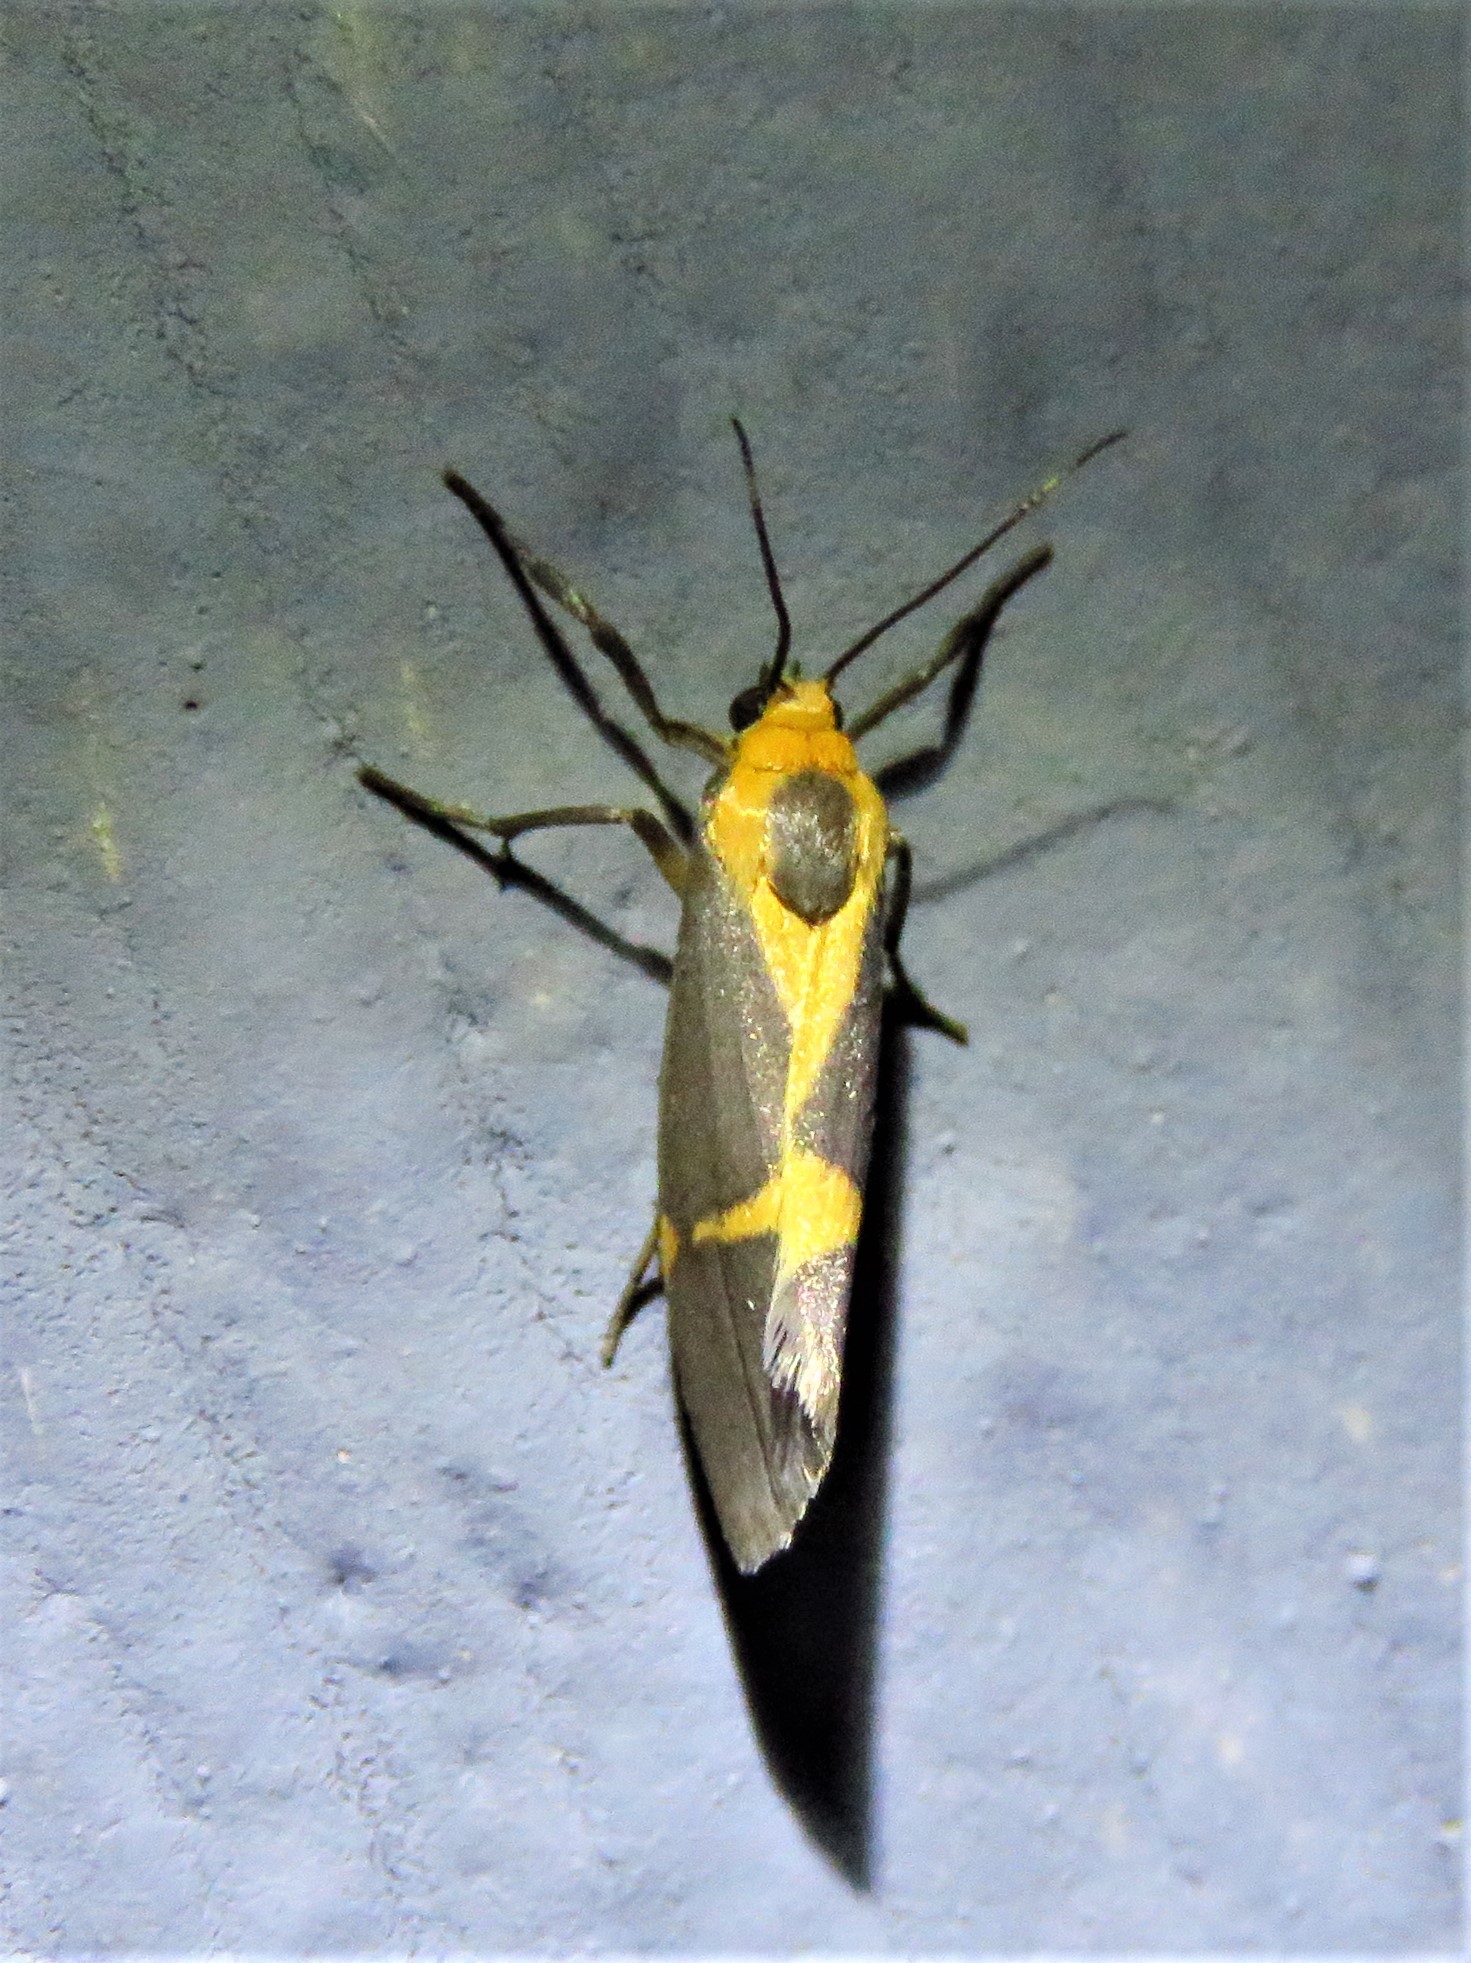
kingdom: Animalia
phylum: Arthropoda
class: Insecta
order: Lepidoptera
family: Erebidae
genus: Cisthene
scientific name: Cisthene tenuifascia
